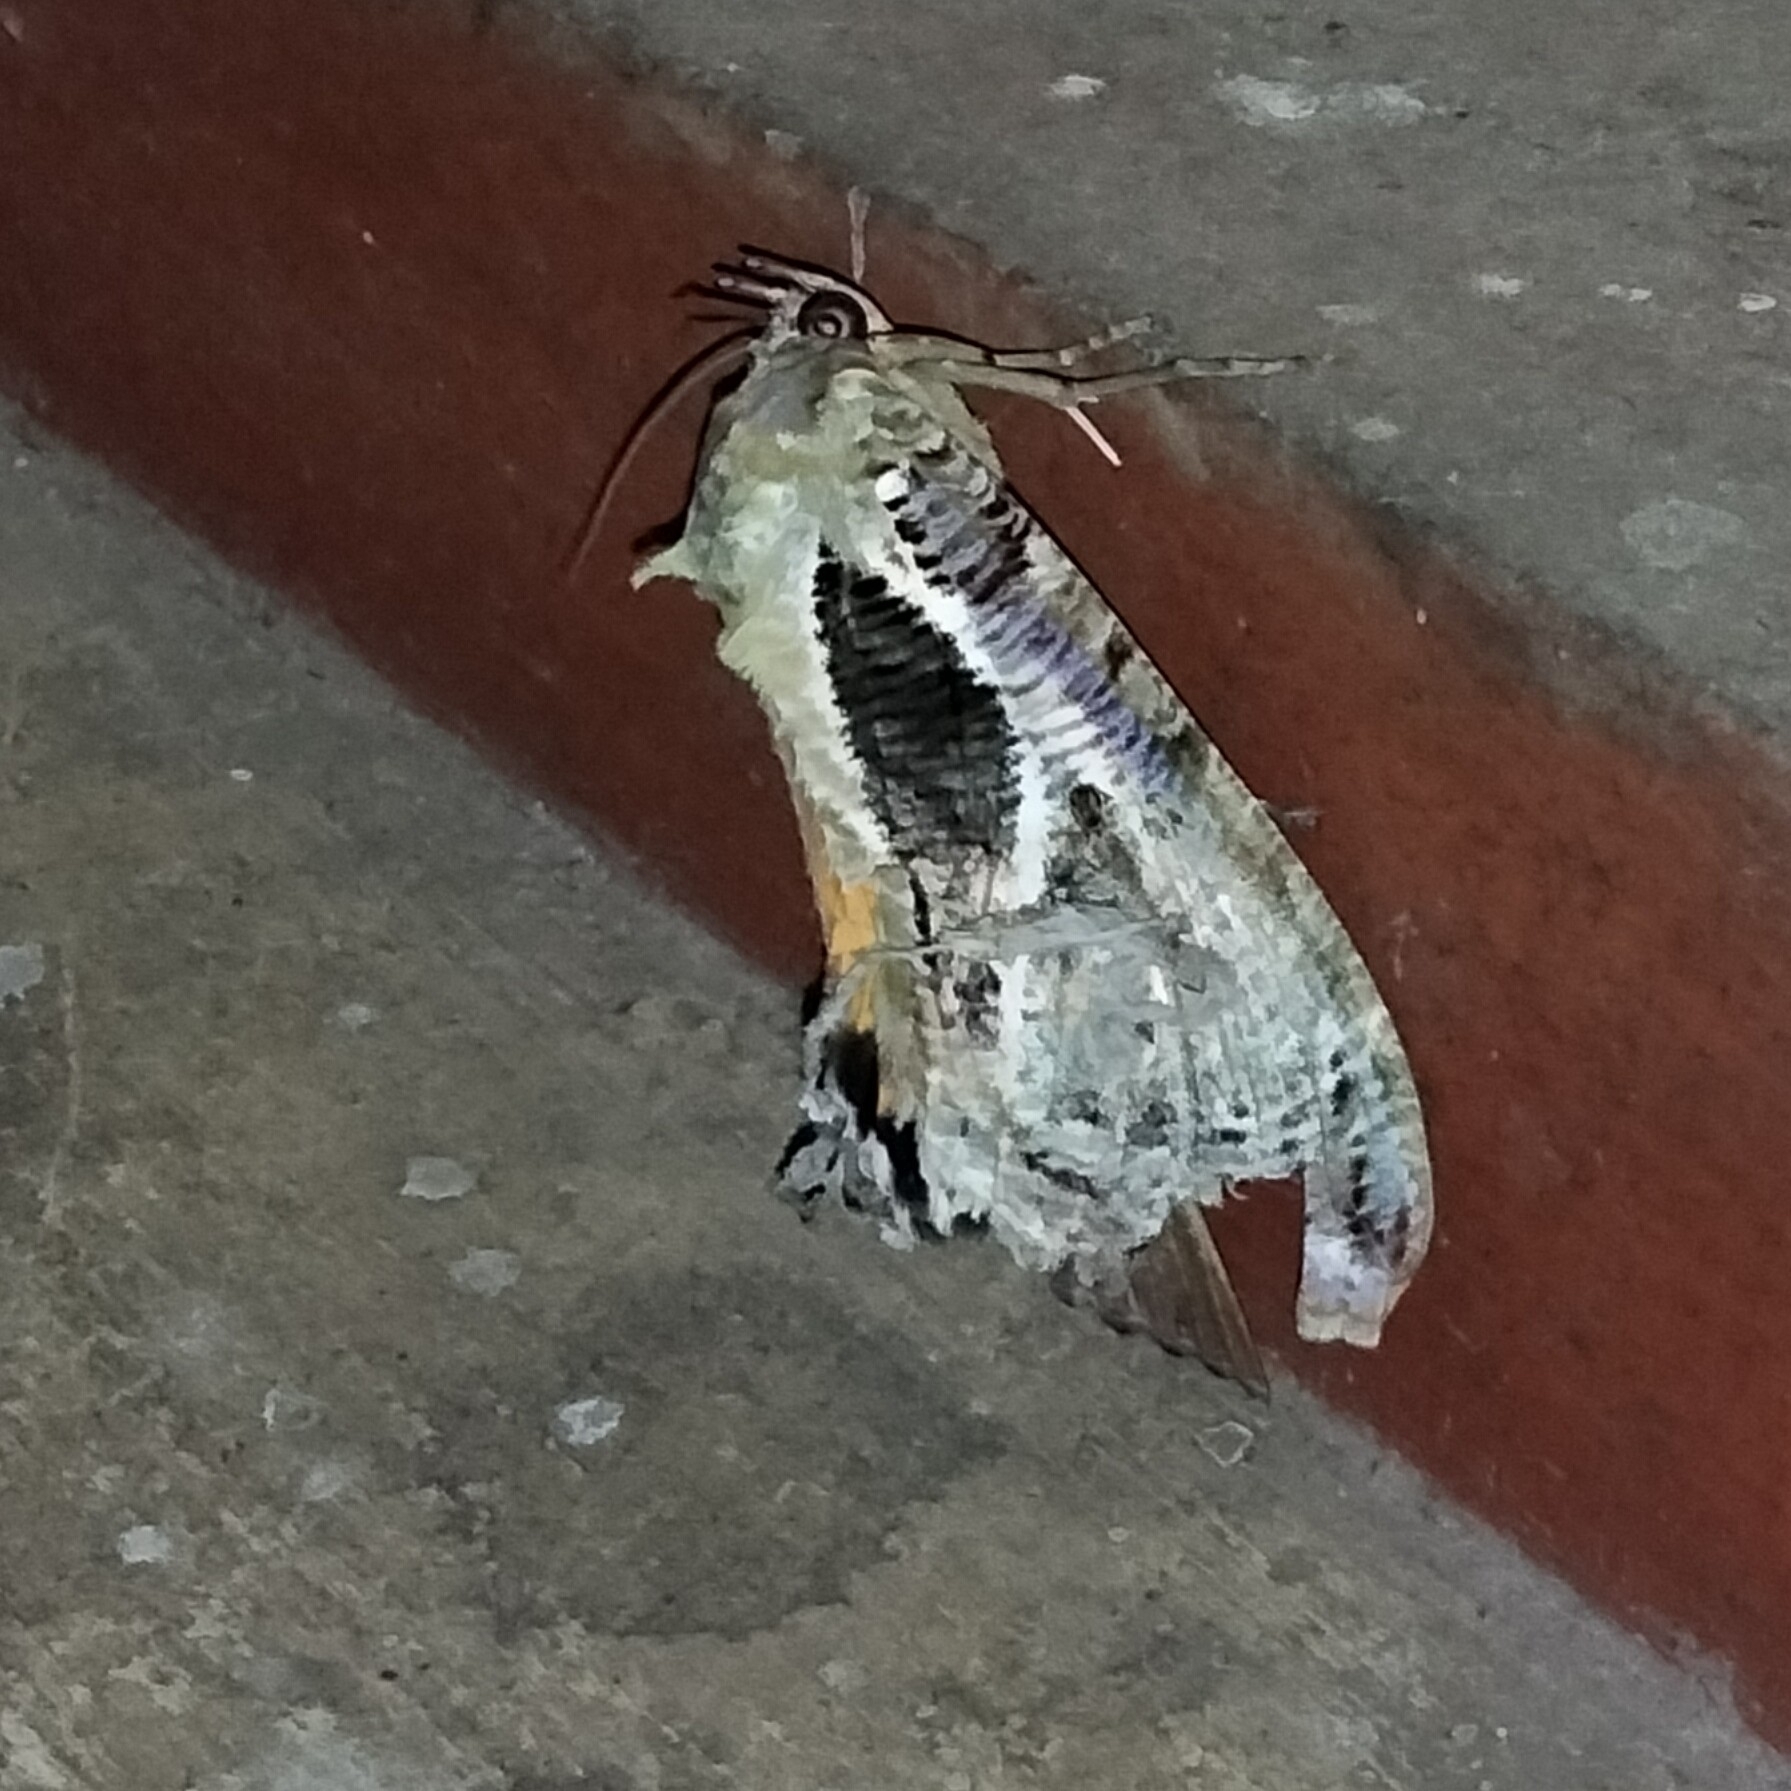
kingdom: Animalia
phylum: Arthropoda
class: Insecta
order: Lepidoptera
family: Erebidae
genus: Eudocima
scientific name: Eudocima materna
